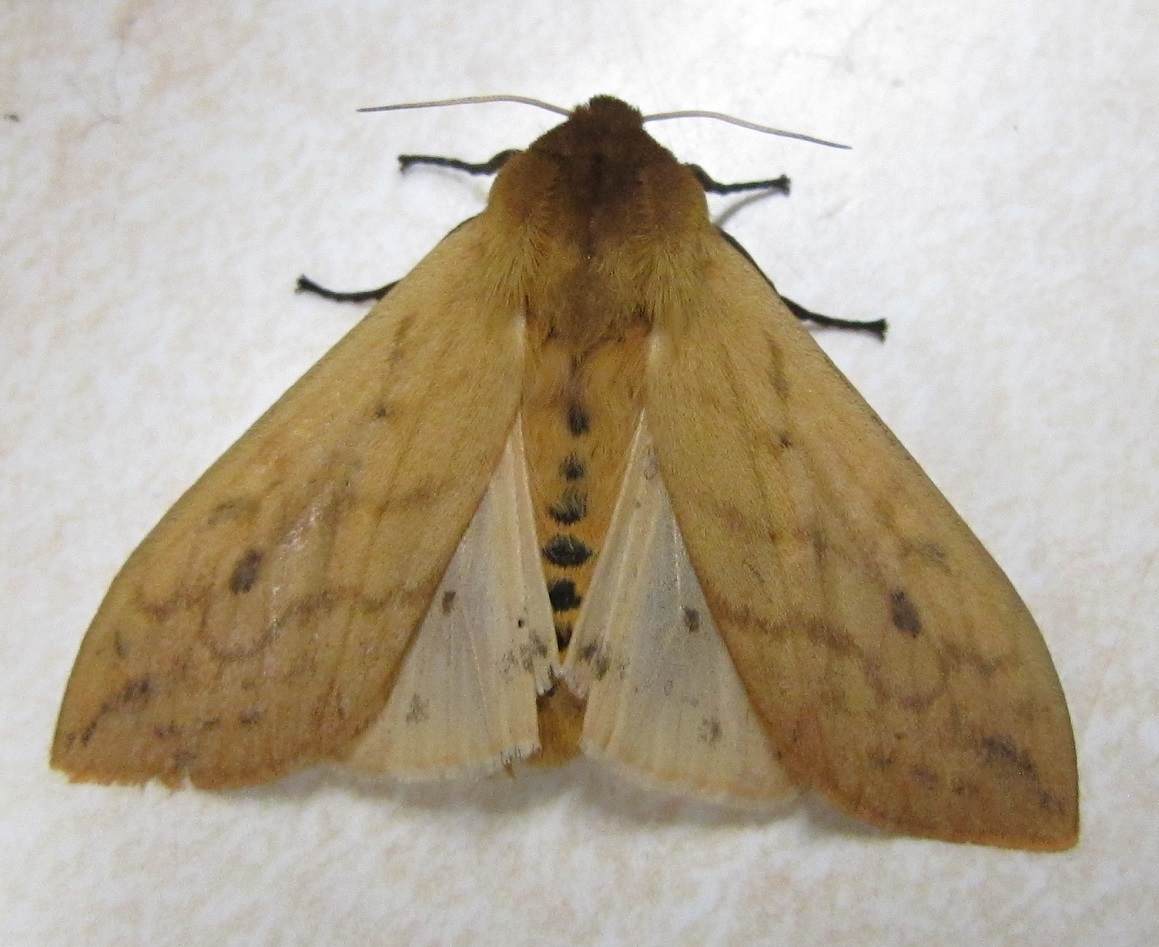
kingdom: Animalia
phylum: Arthropoda
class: Insecta
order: Lepidoptera
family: Erebidae
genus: Pyrrharctia
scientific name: Pyrrharctia isabella
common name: Isabella tiger moth
